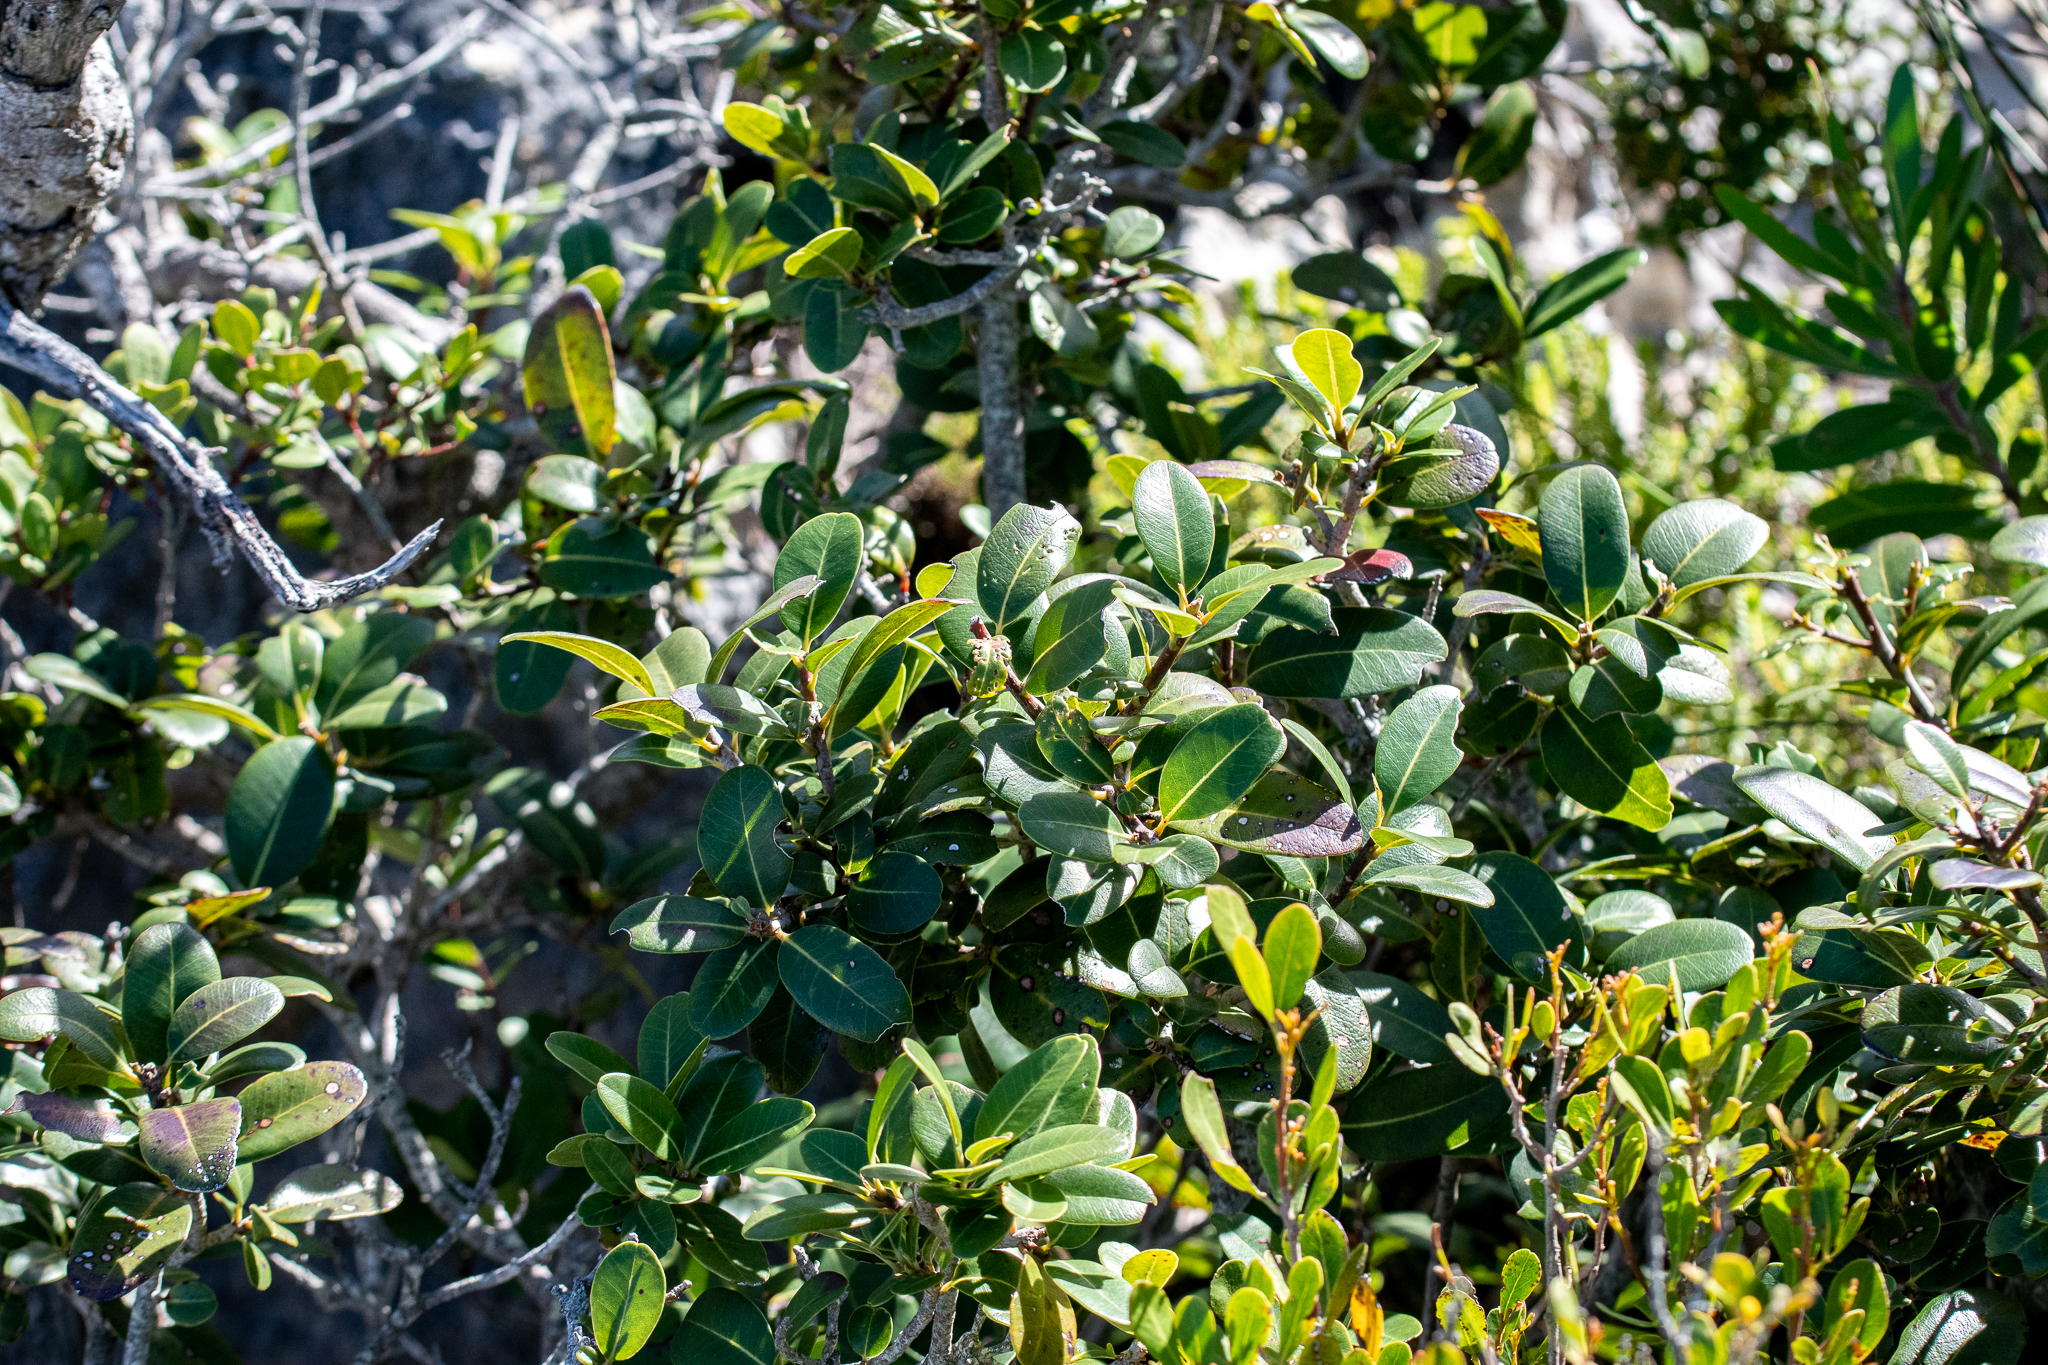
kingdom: Plantae
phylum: Tracheophyta
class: Magnoliopsida
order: Ericales
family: Sapotaceae
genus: Sideroxylon
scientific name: Sideroxylon inerme
